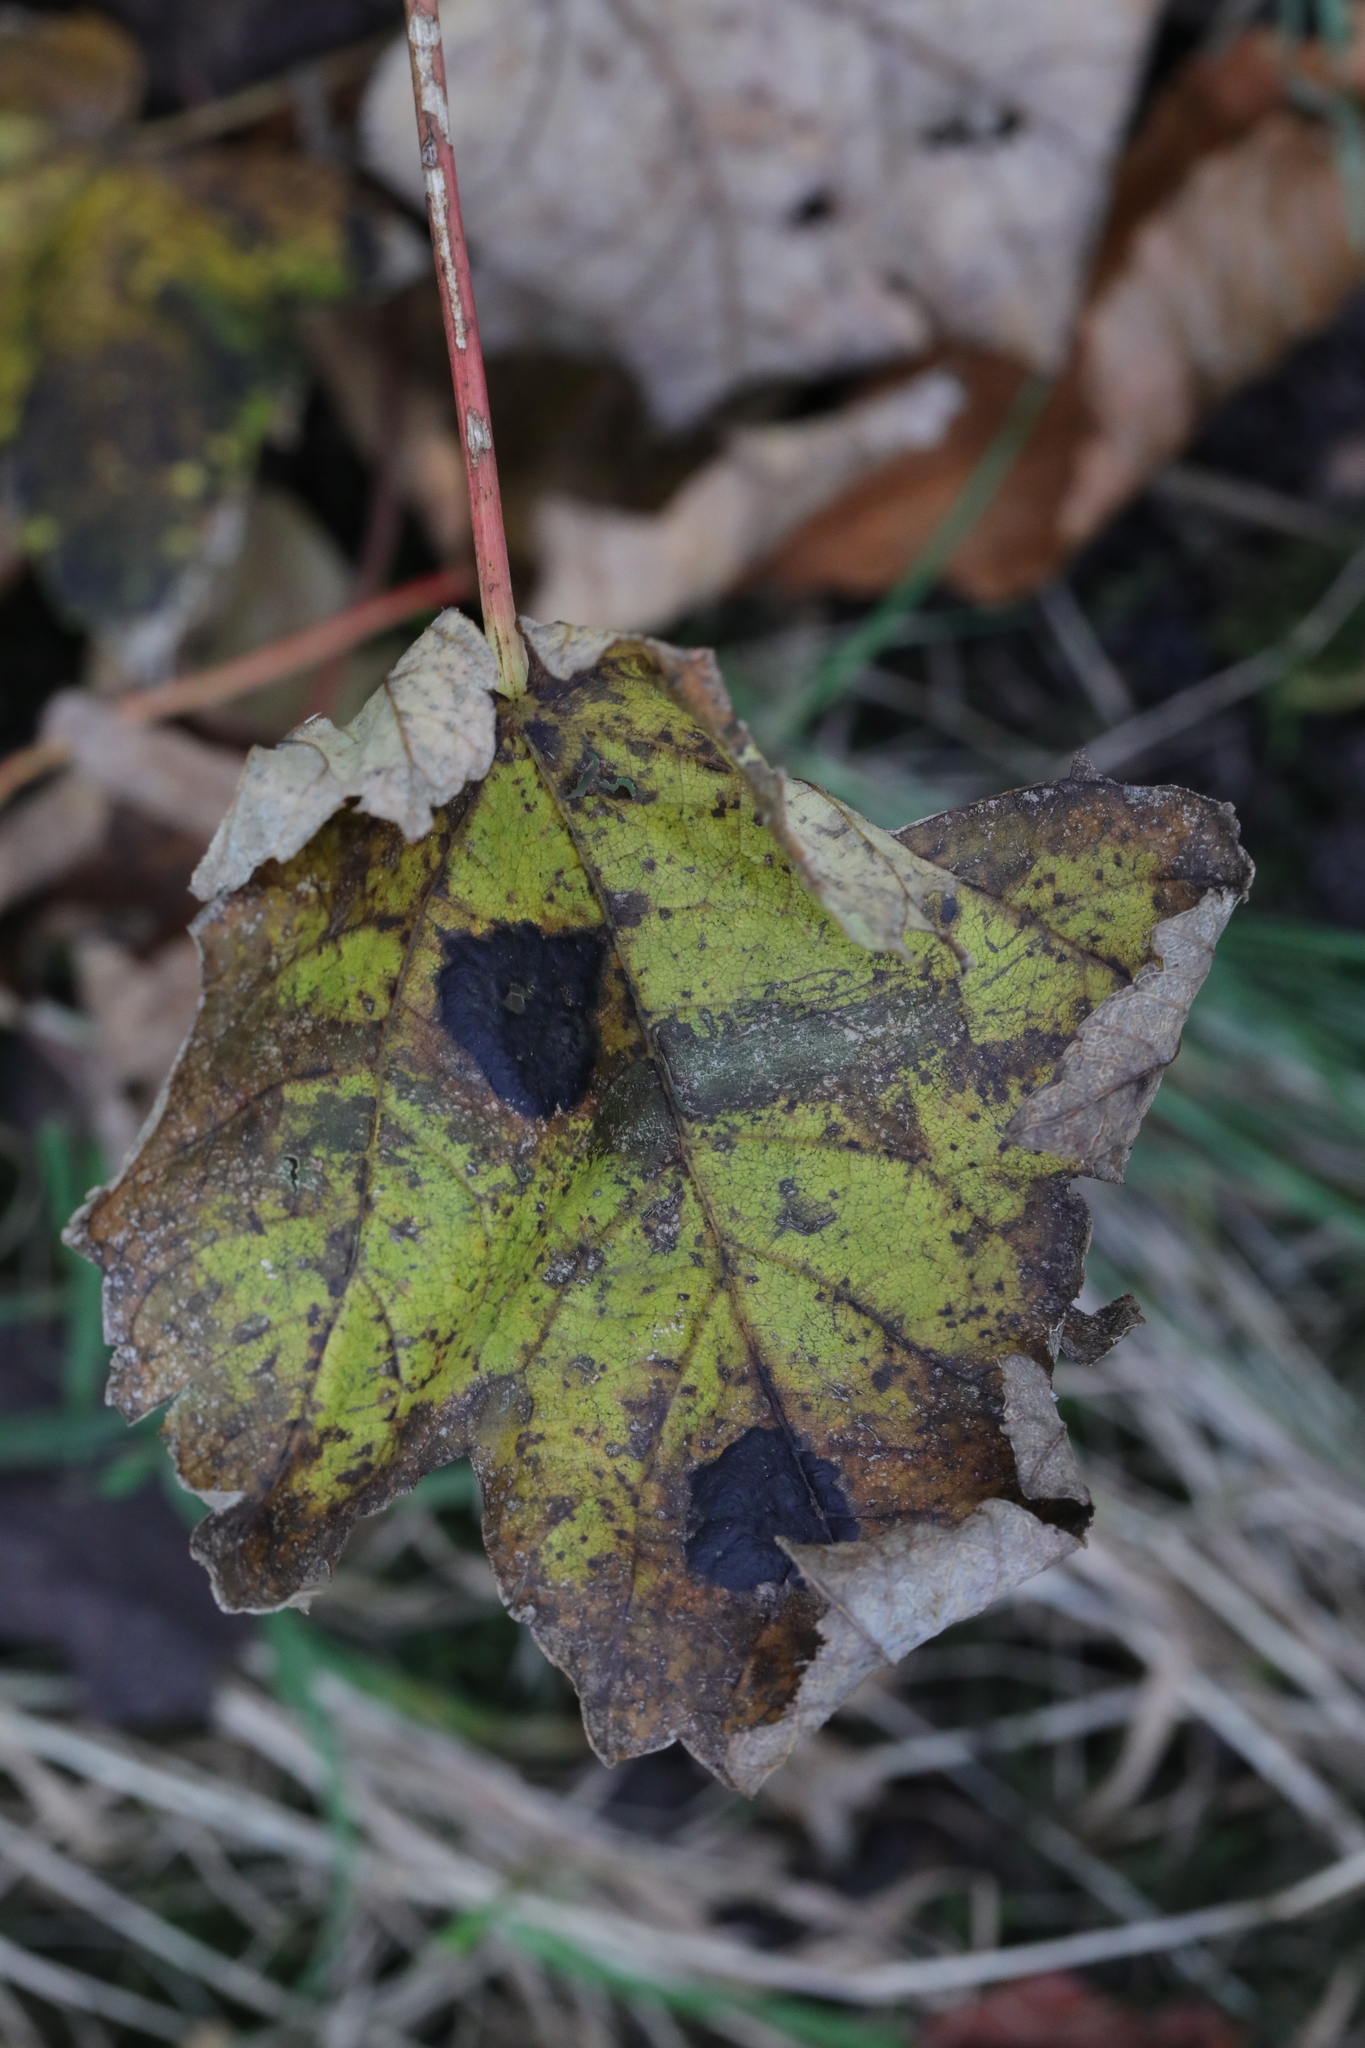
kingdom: Fungi
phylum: Ascomycota
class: Leotiomycetes
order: Rhytismatales
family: Rhytismataceae
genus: Rhytisma
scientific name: Rhytisma acerinum
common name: European tar spot
